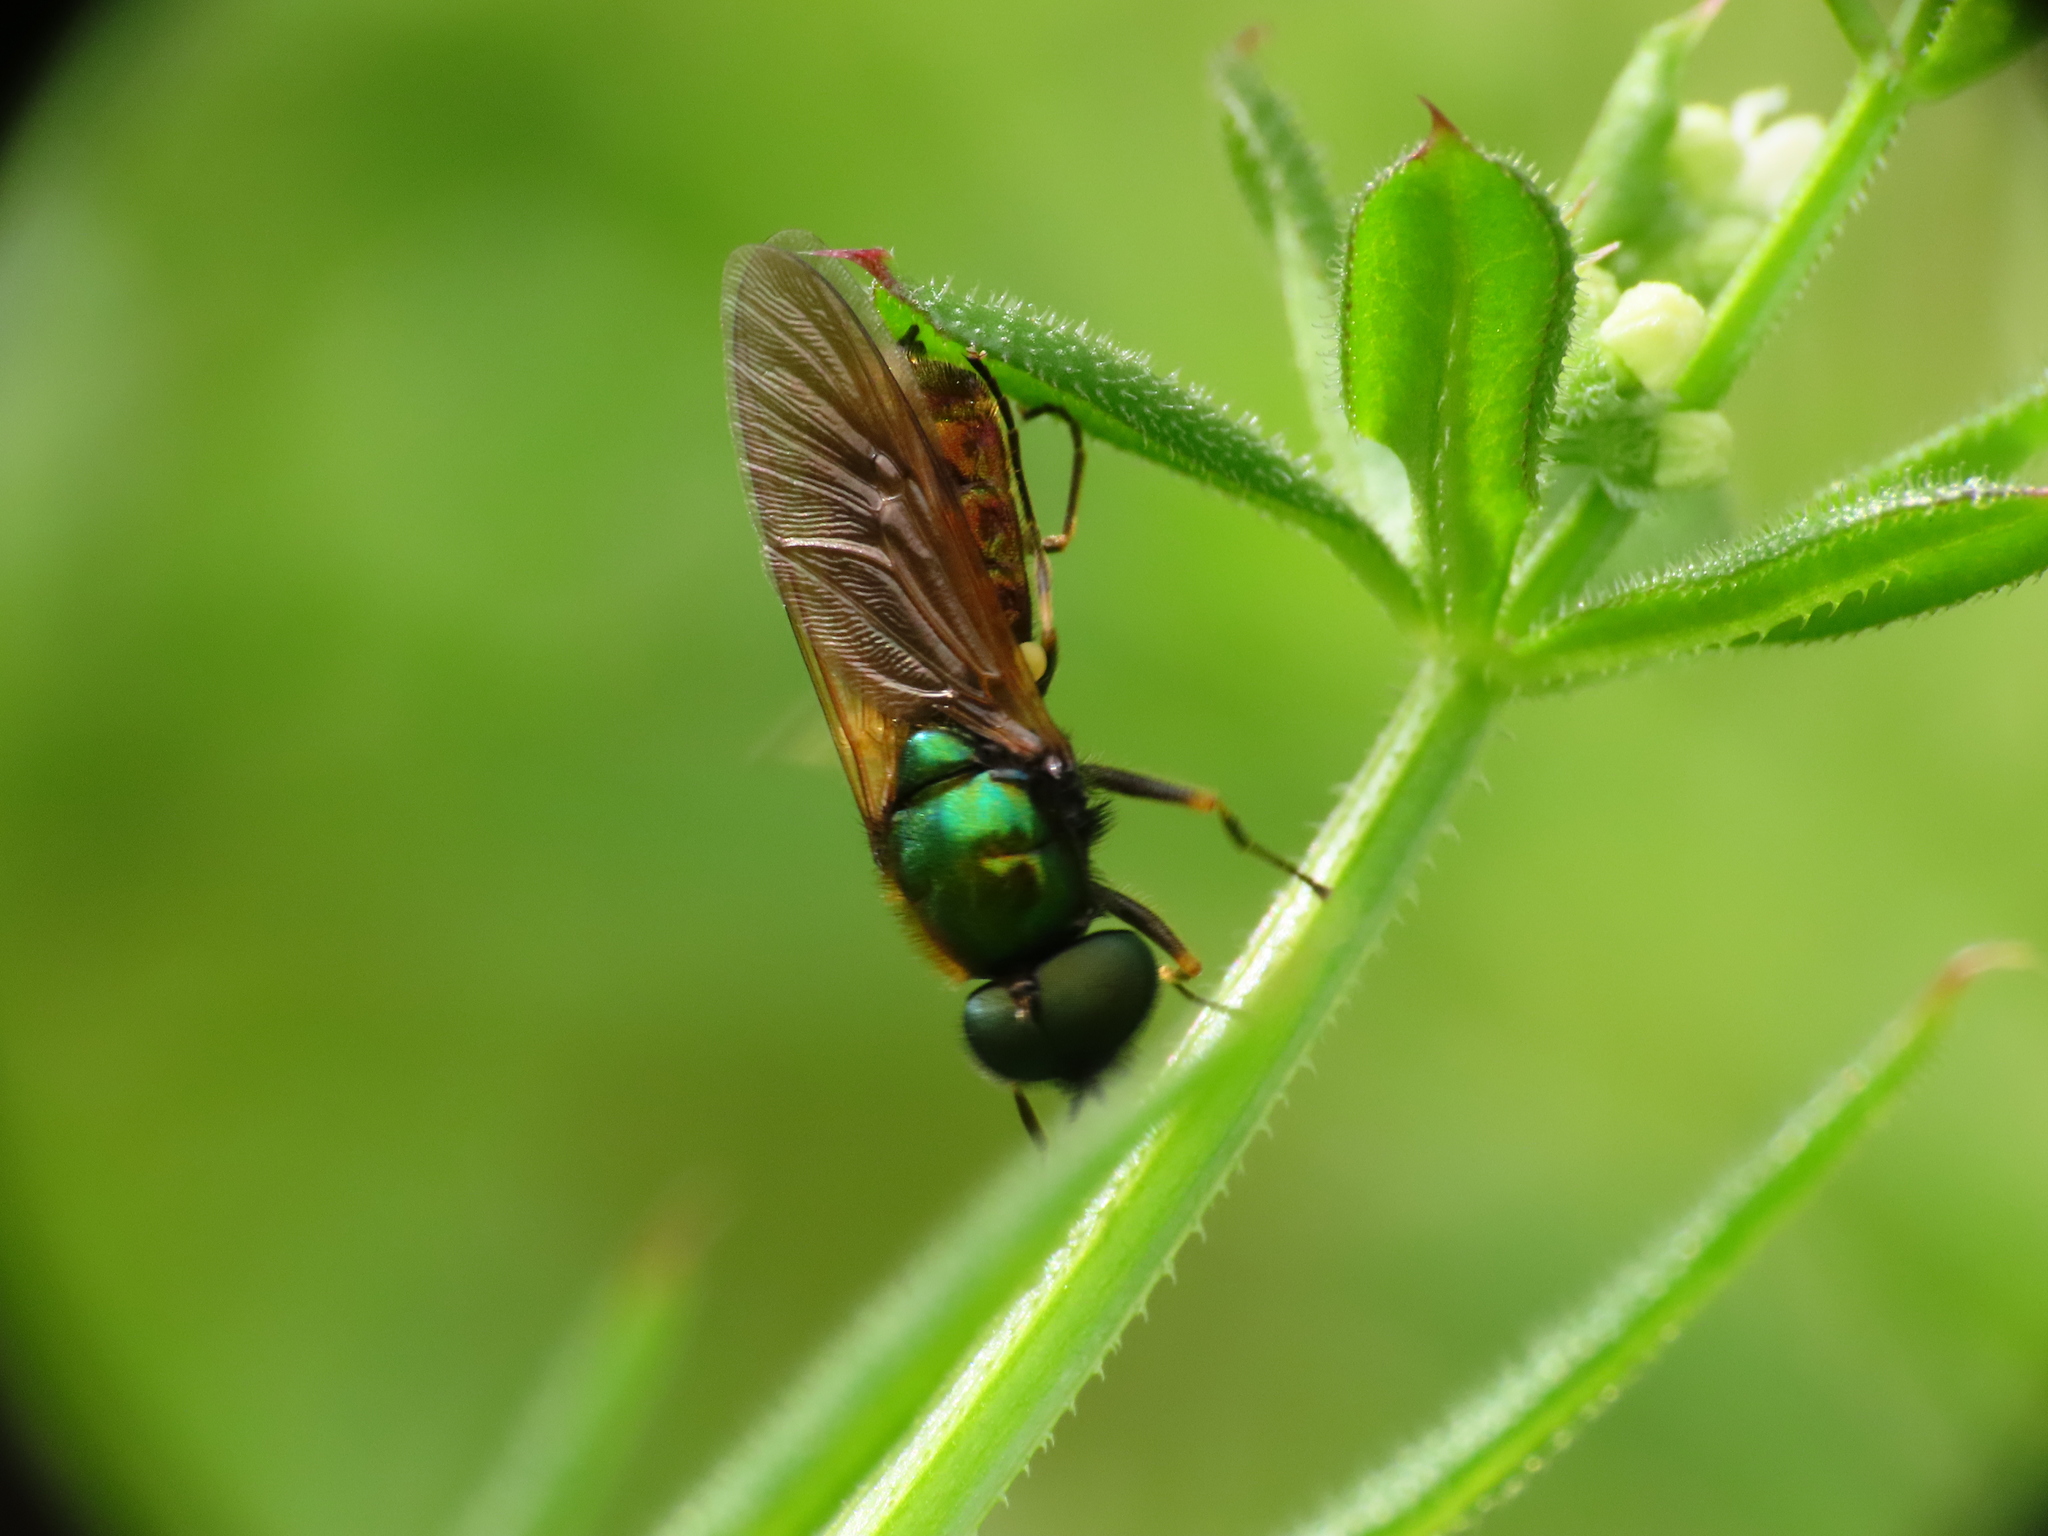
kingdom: Animalia
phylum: Arthropoda
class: Insecta
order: Diptera
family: Stratiomyidae
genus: Chloromyia
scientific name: Chloromyia formosa
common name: Soldier fly
